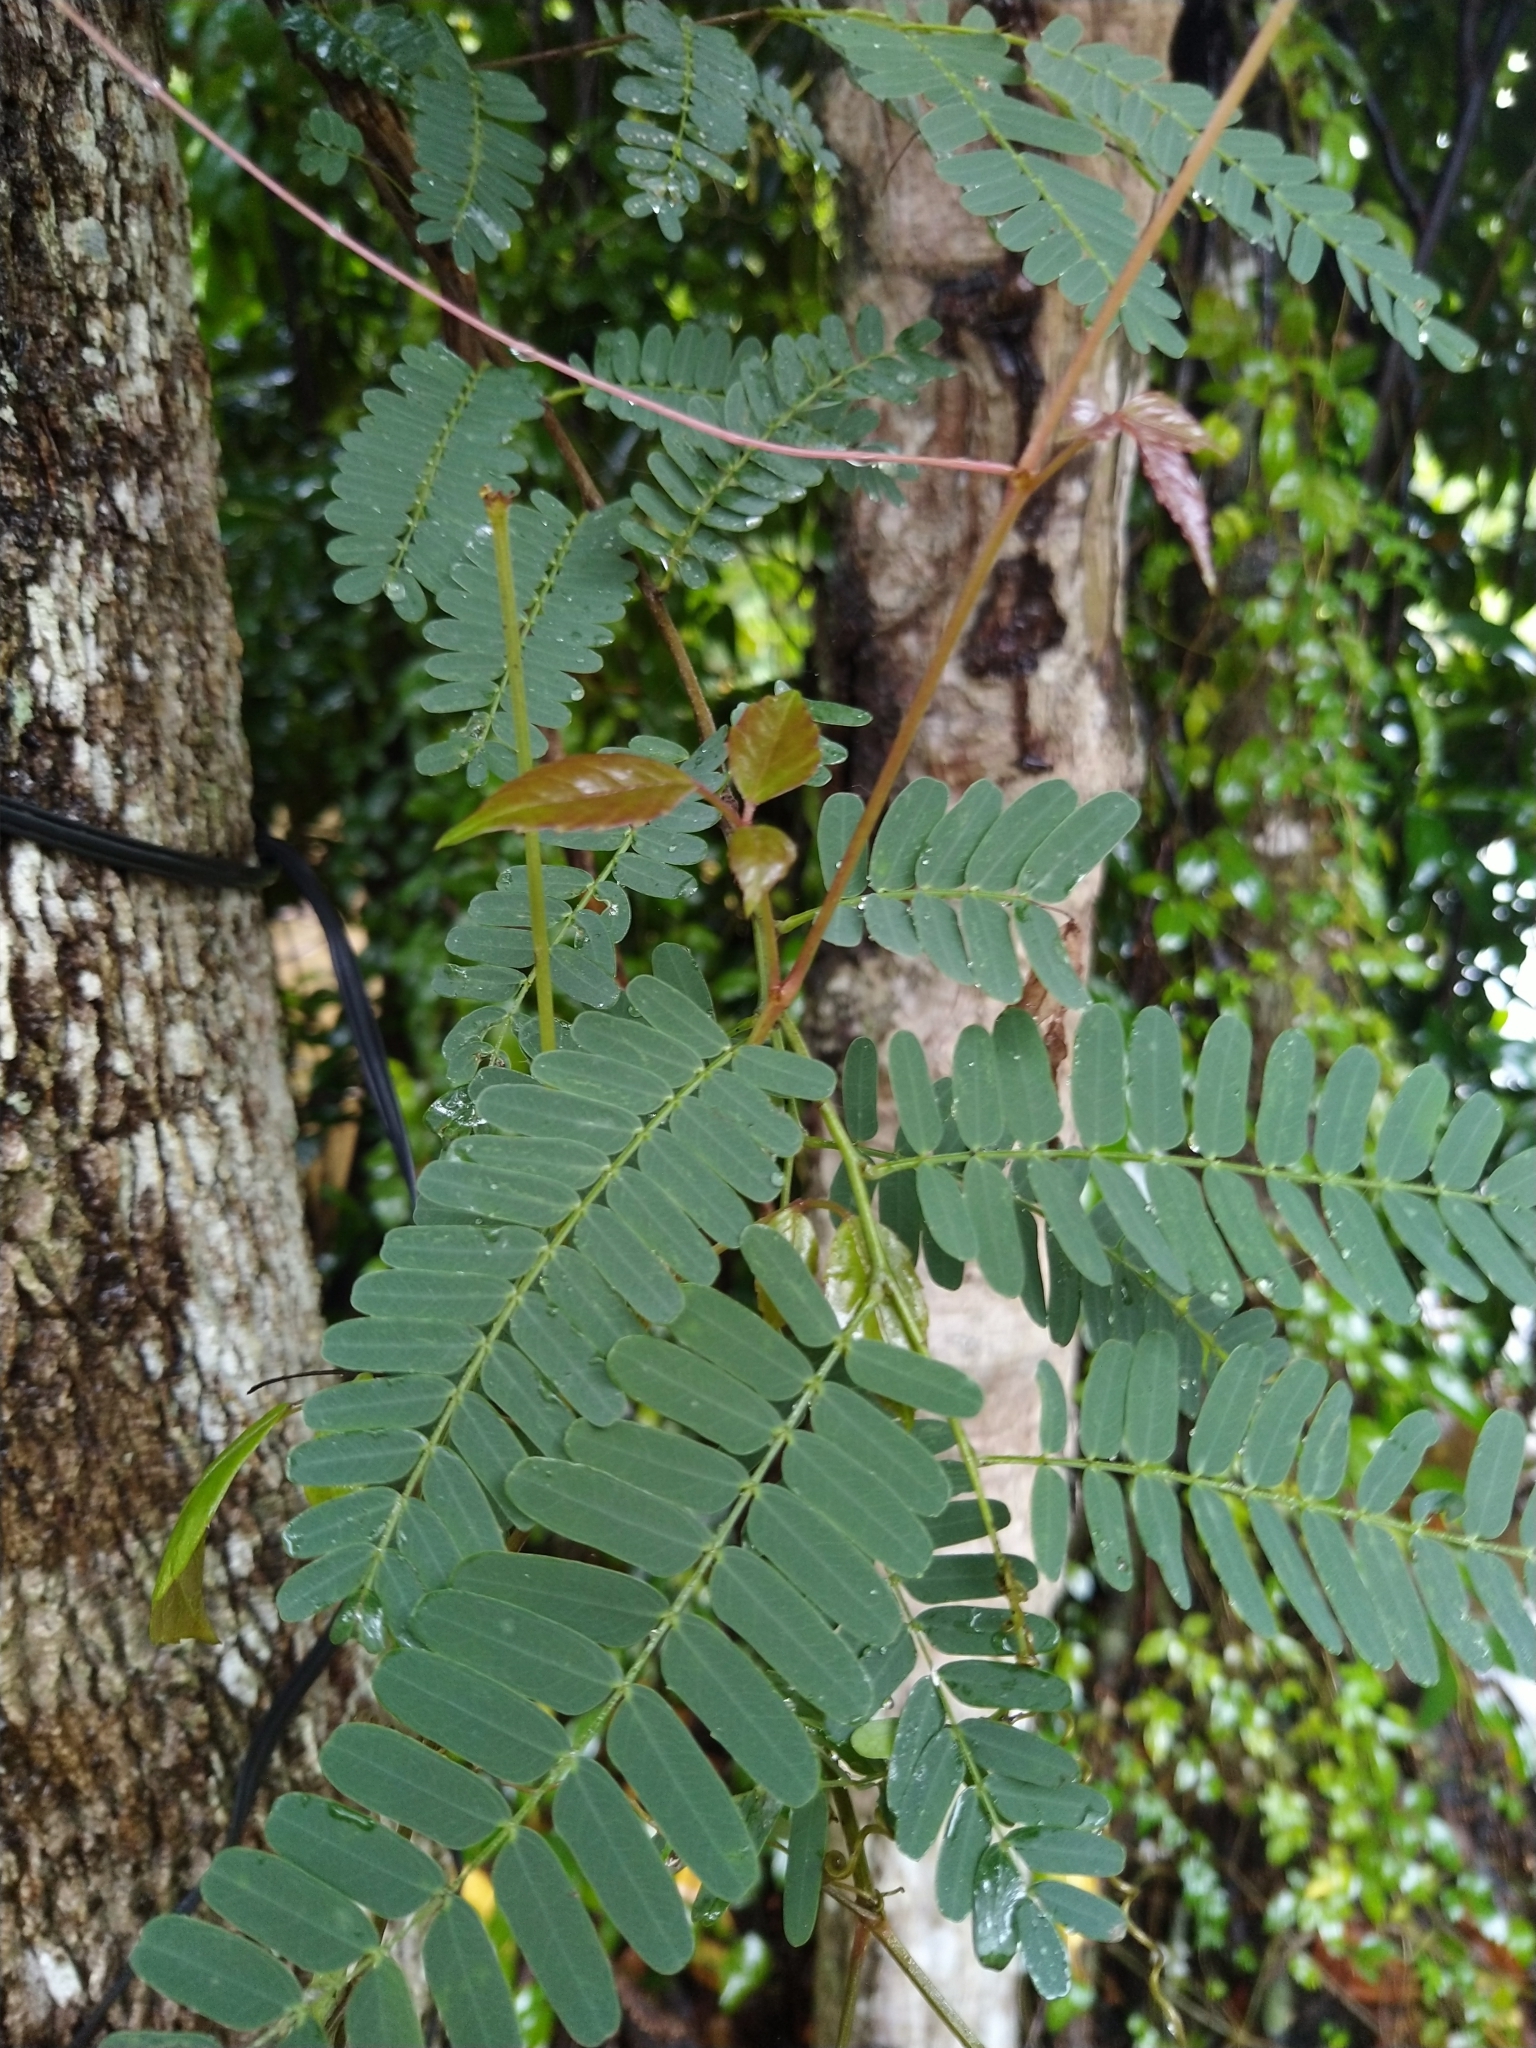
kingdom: Plantae
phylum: Tracheophyta
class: Magnoliopsida
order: Fabales
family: Fabaceae
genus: Tamarindus
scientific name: Tamarindus indica
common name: Tamarind
